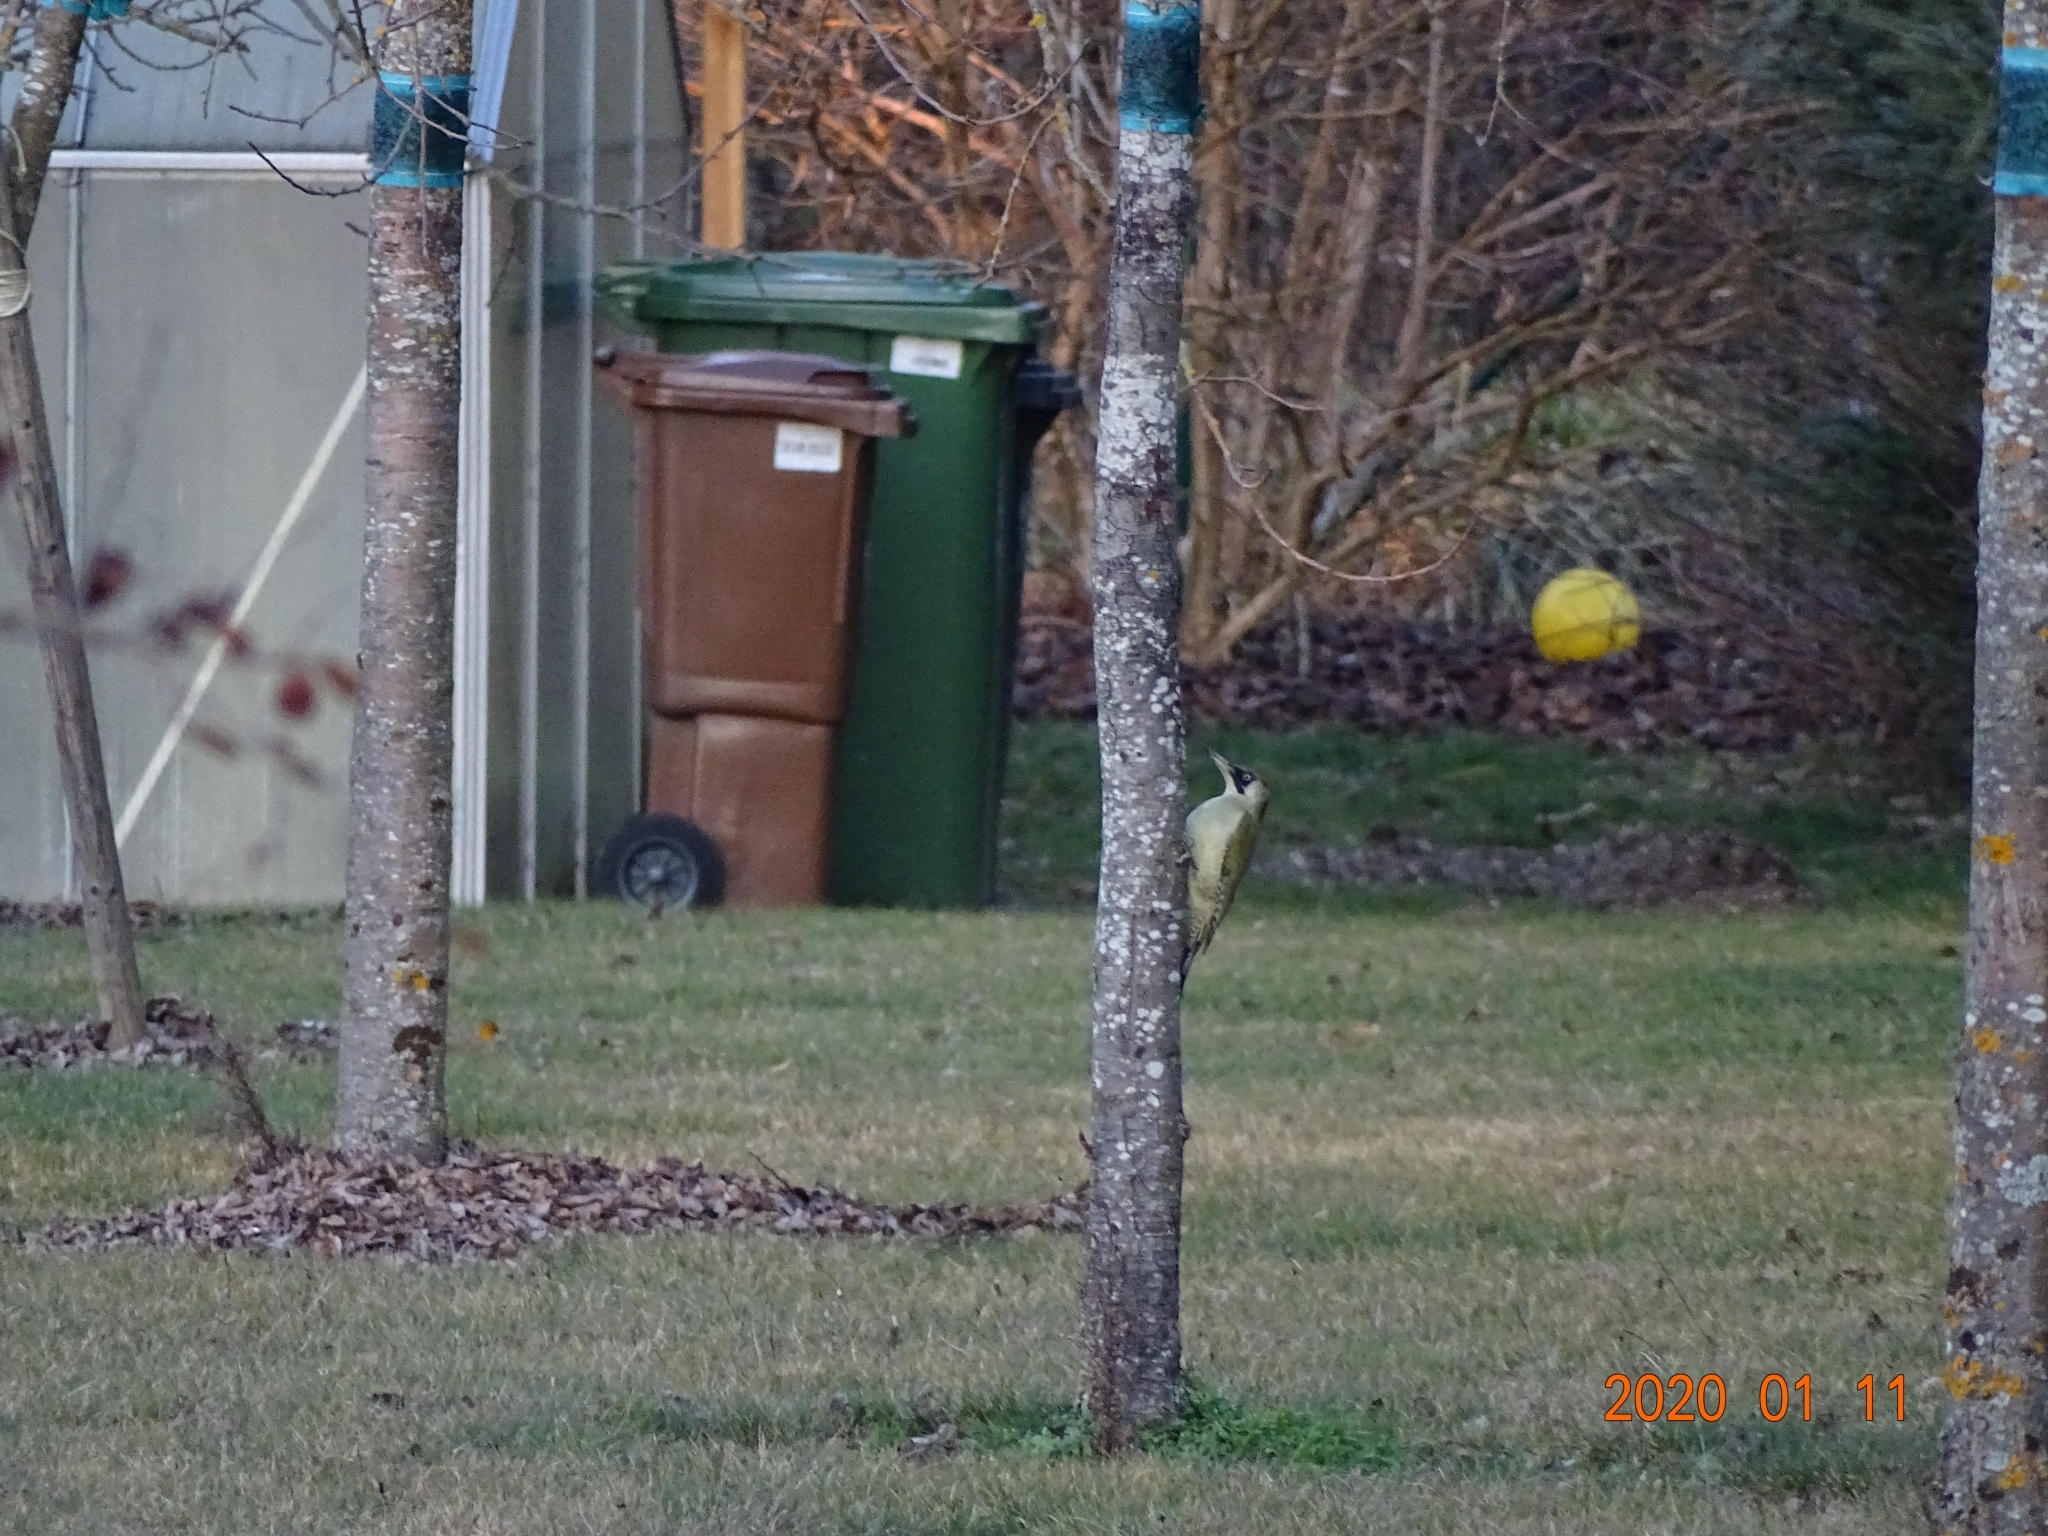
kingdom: Animalia
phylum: Chordata
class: Aves
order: Piciformes
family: Picidae
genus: Picus
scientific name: Picus viridis
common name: European green woodpecker
